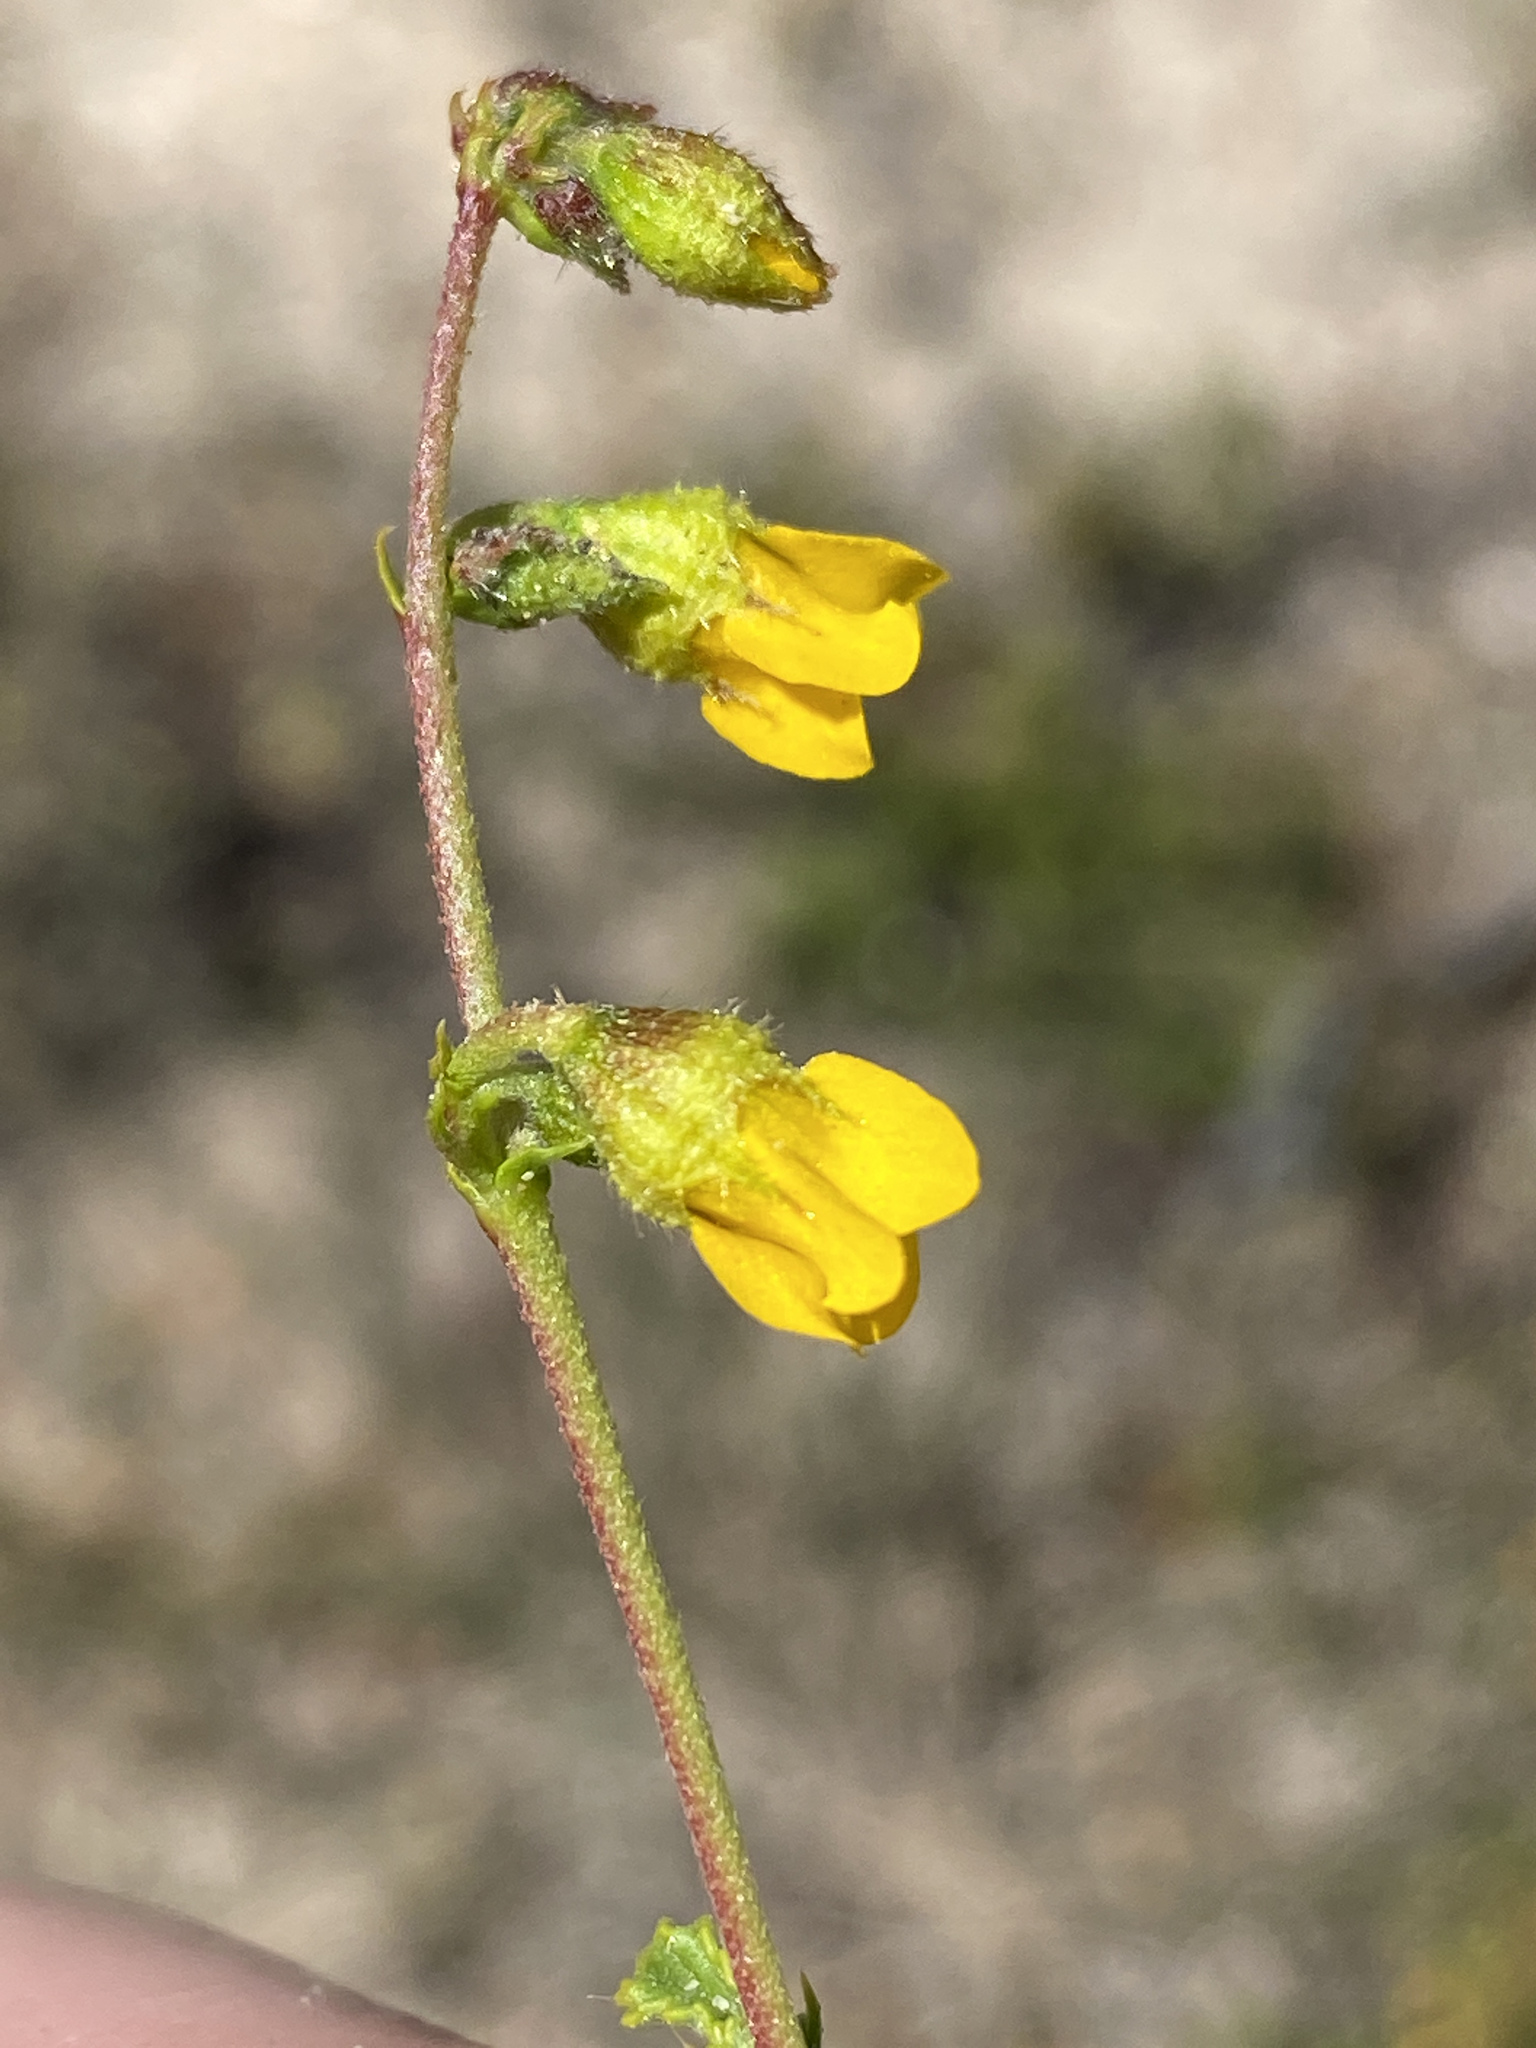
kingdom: Plantae
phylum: Tracheophyta
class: Magnoliopsida
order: Malvales
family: Malvaceae
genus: Hermannia
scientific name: Hermannia alnifolia
